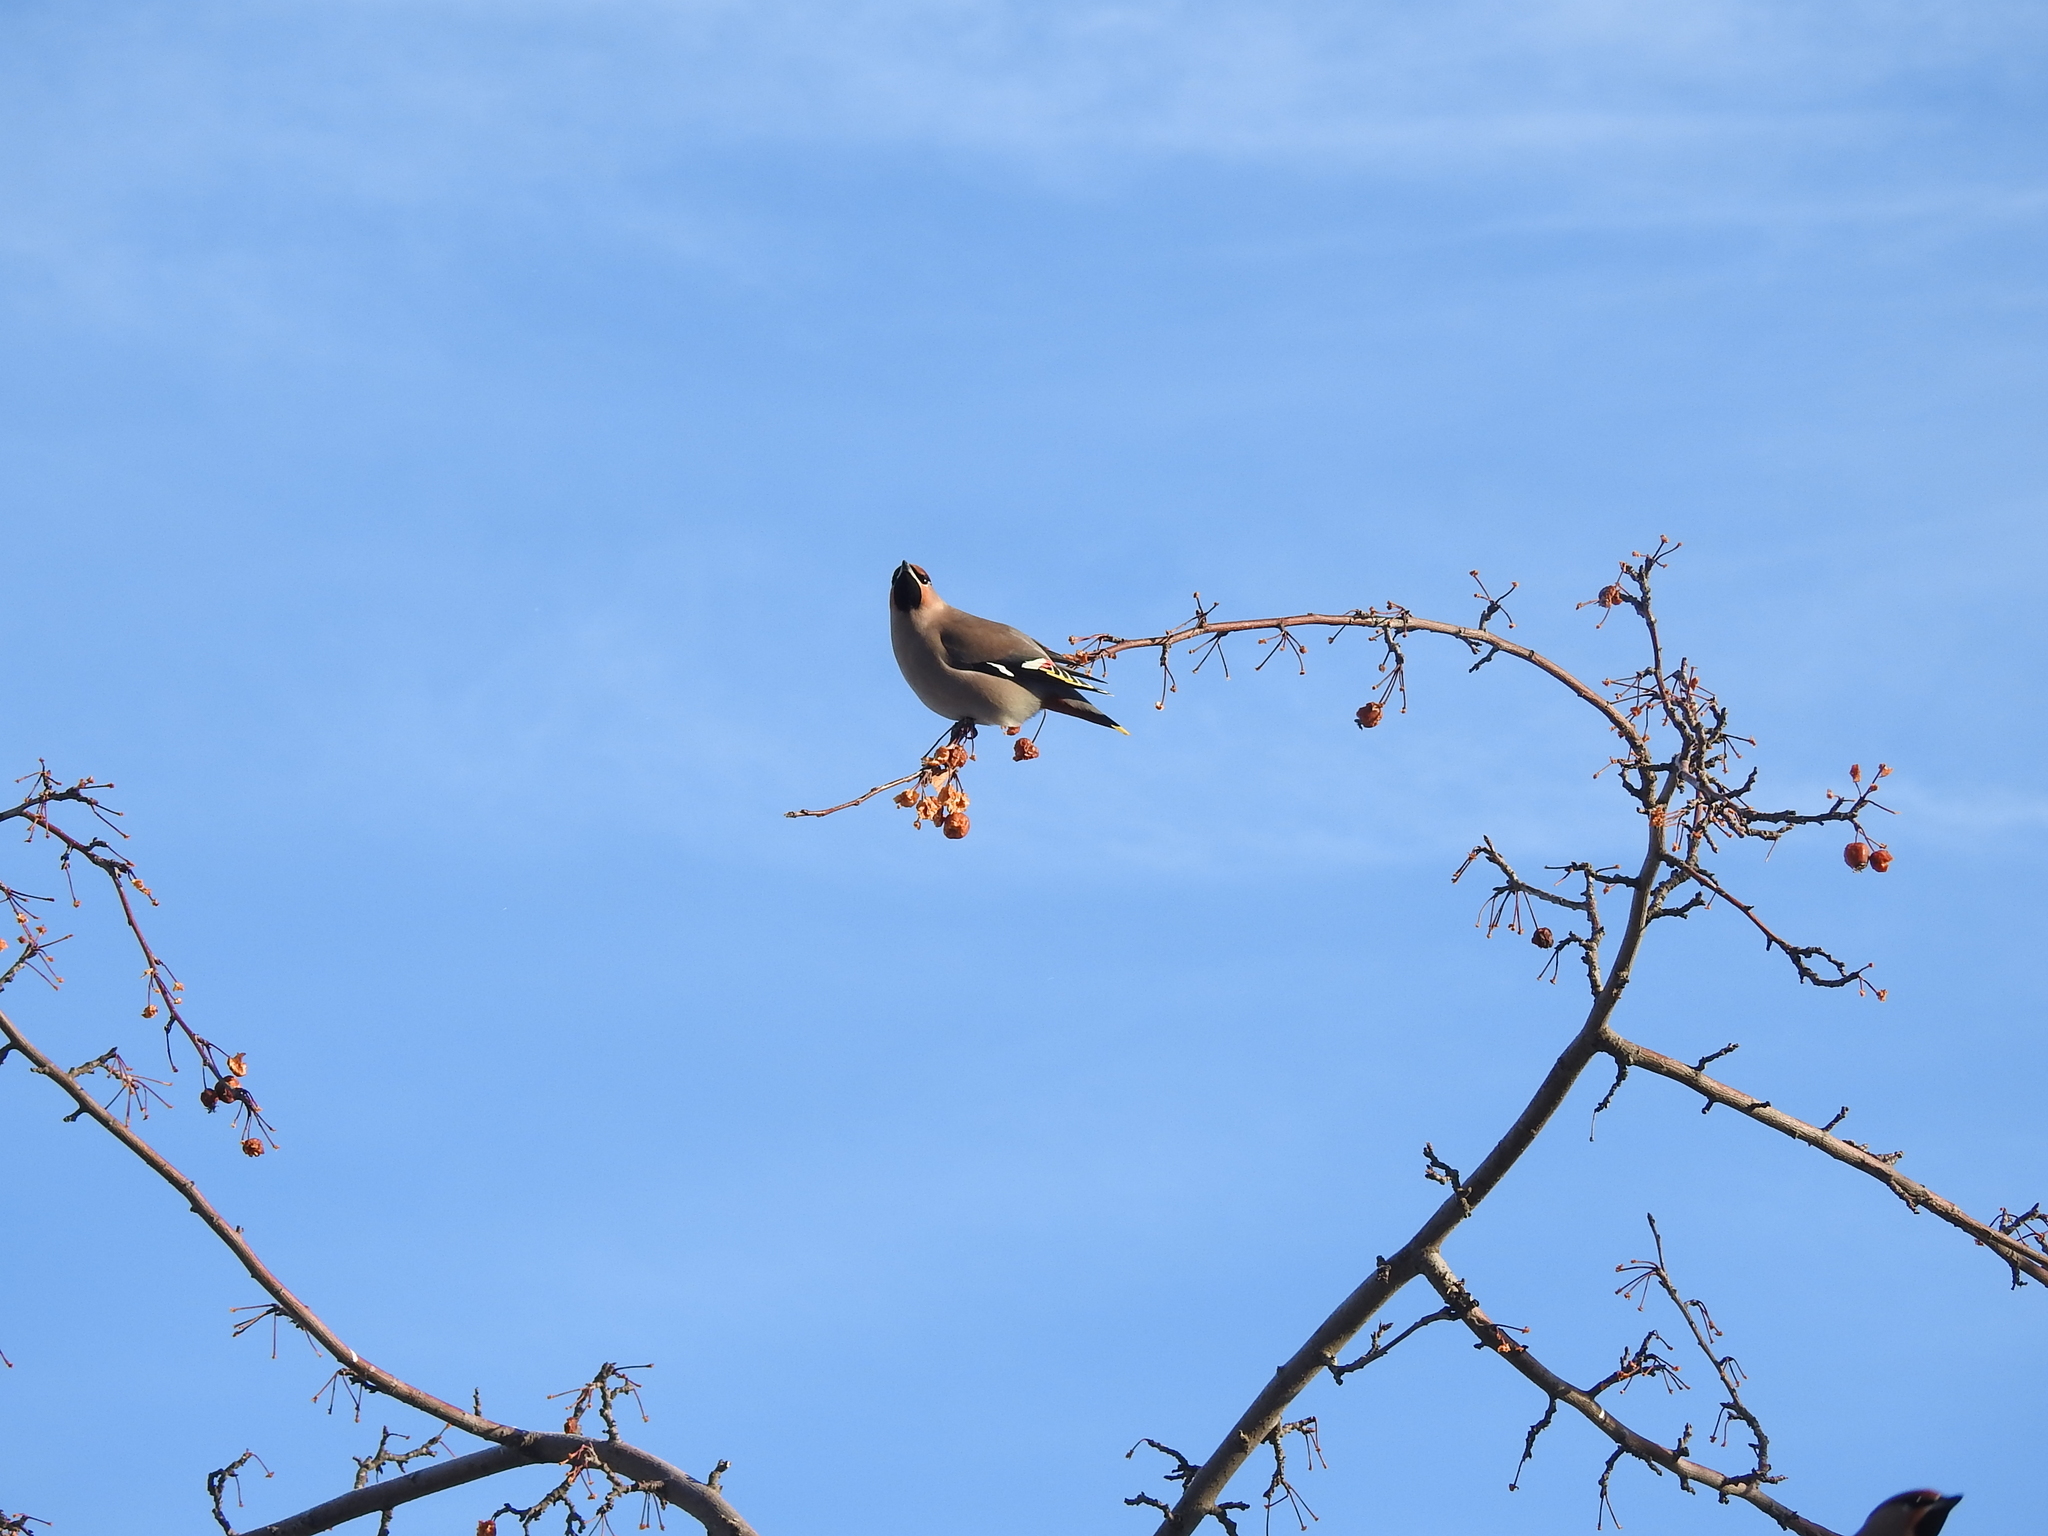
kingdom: Animalia
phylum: Chordata
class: Aves
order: Passeriformes
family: Bombycillidae
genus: Bombycilla
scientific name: Bombycilla garrulus
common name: Bohemian waxwing
